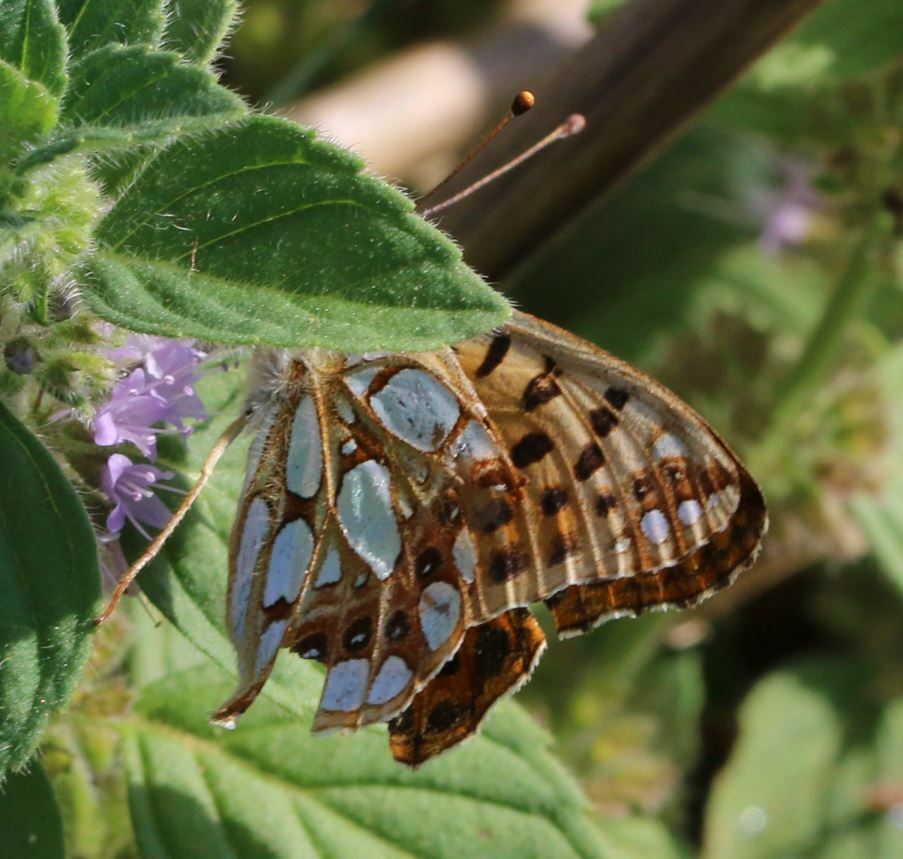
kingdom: Animalia
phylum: Arthropoda
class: Insecta
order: Lepidoptera
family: Nymphalidae
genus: Issoria
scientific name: Issoria lathonia
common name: Queen of spain fritillary
